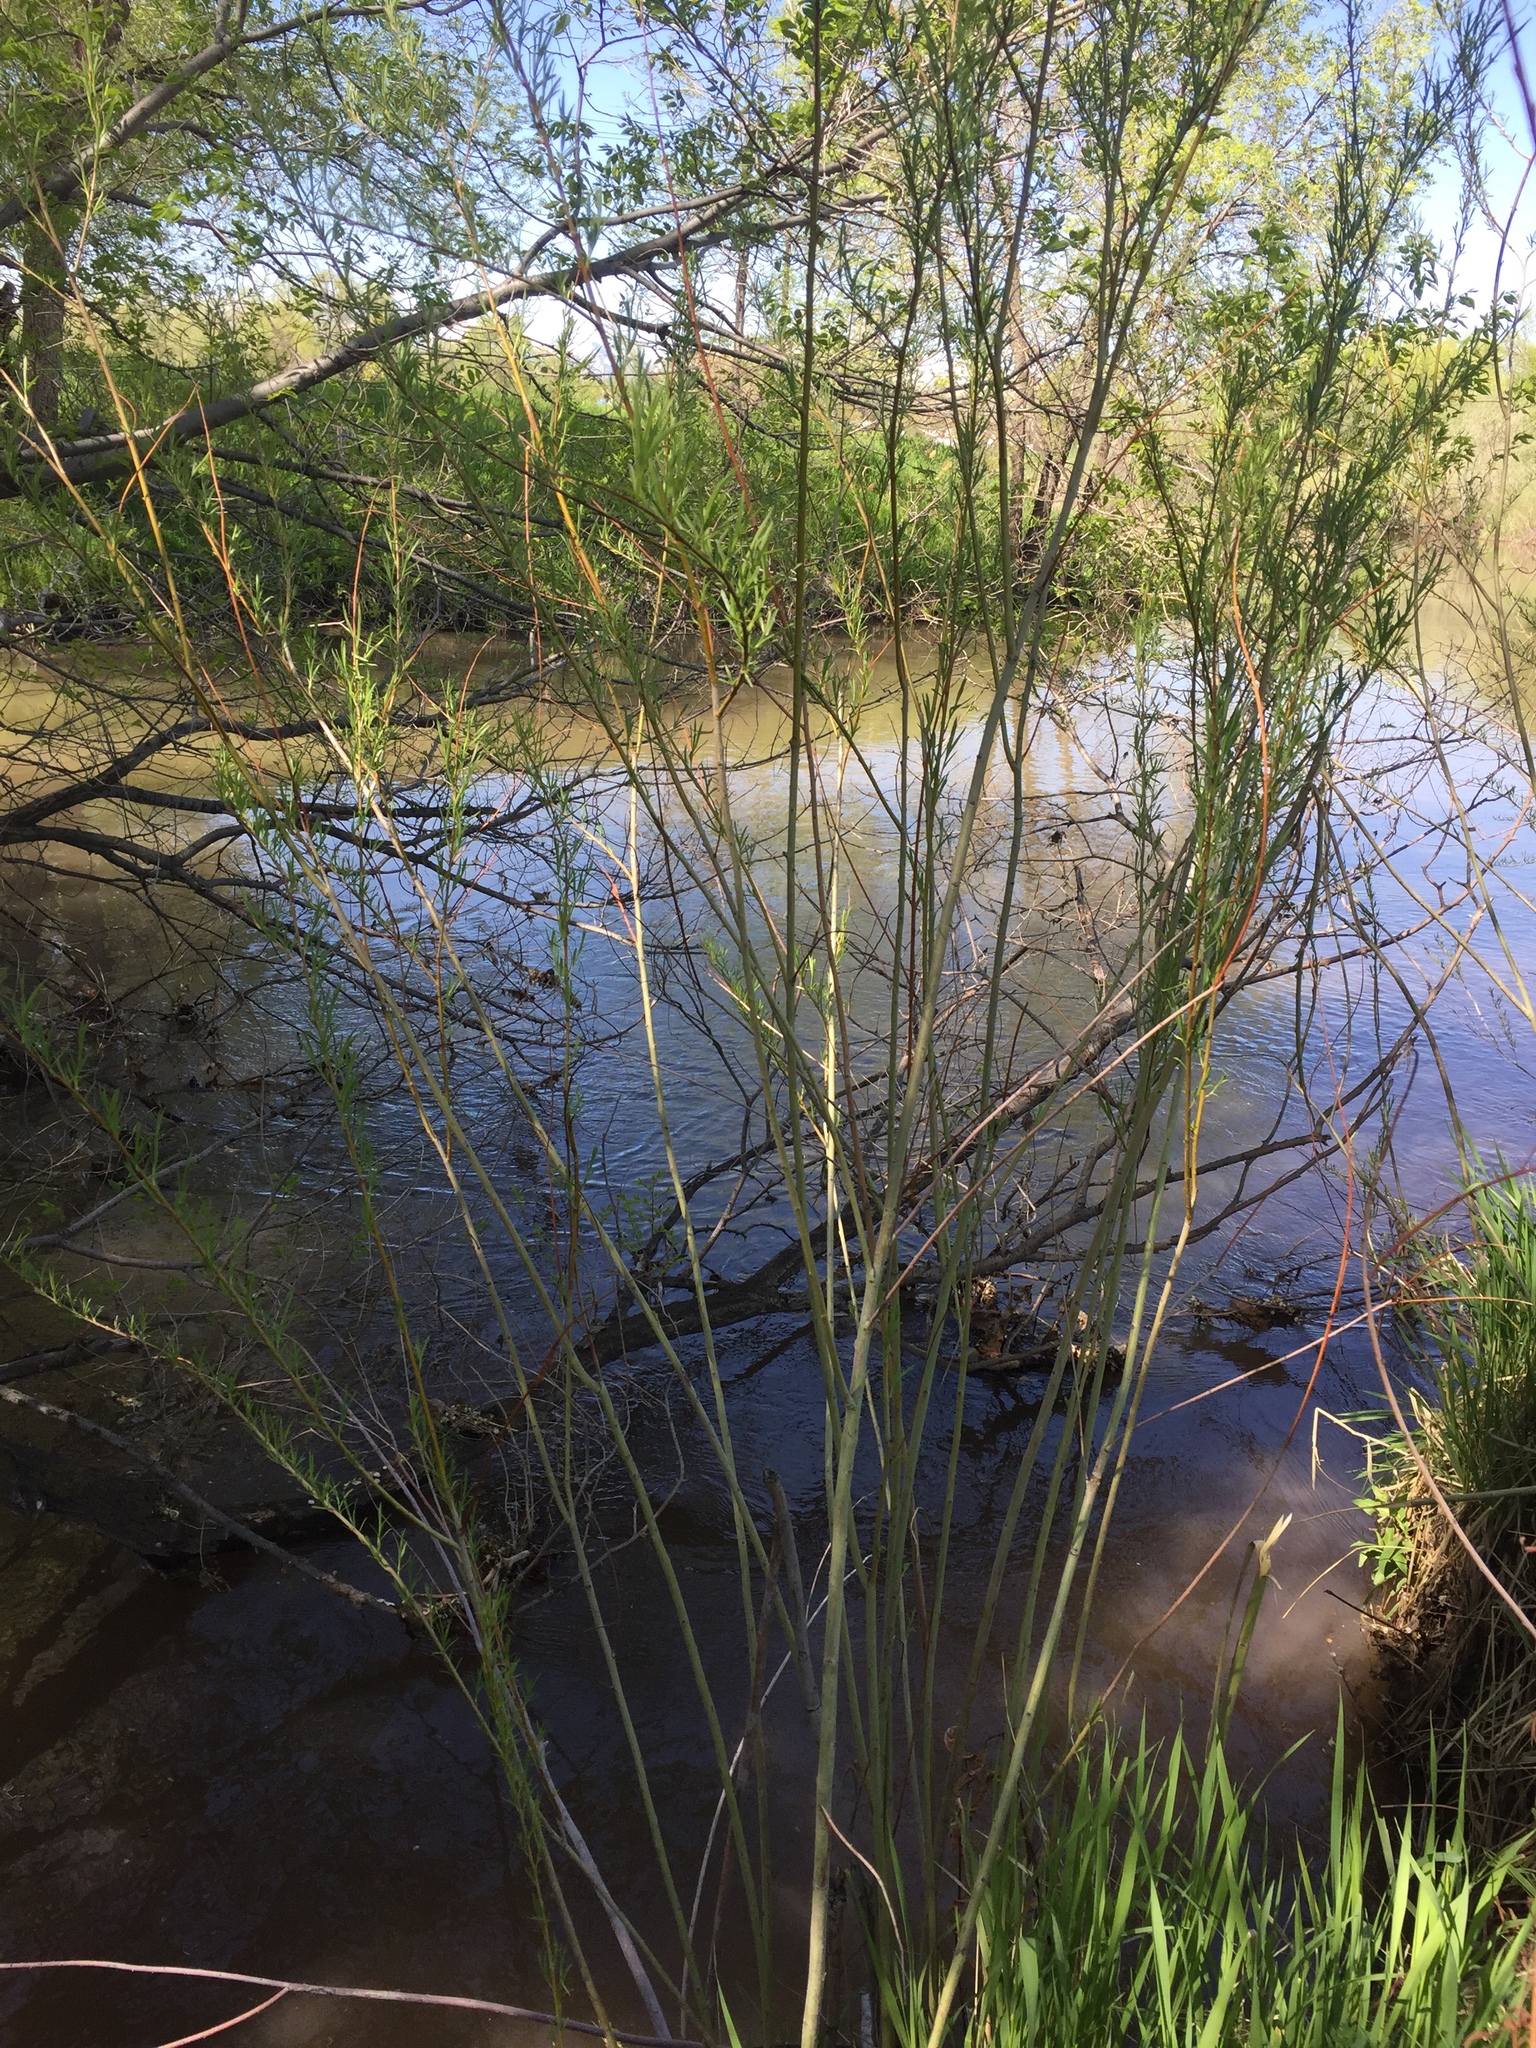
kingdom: Plantae
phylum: Tracheophyta
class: Magnoliopsida
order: Malpighiales
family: Salicaceae
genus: Salix
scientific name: Salix exigua
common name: Coyote willow
